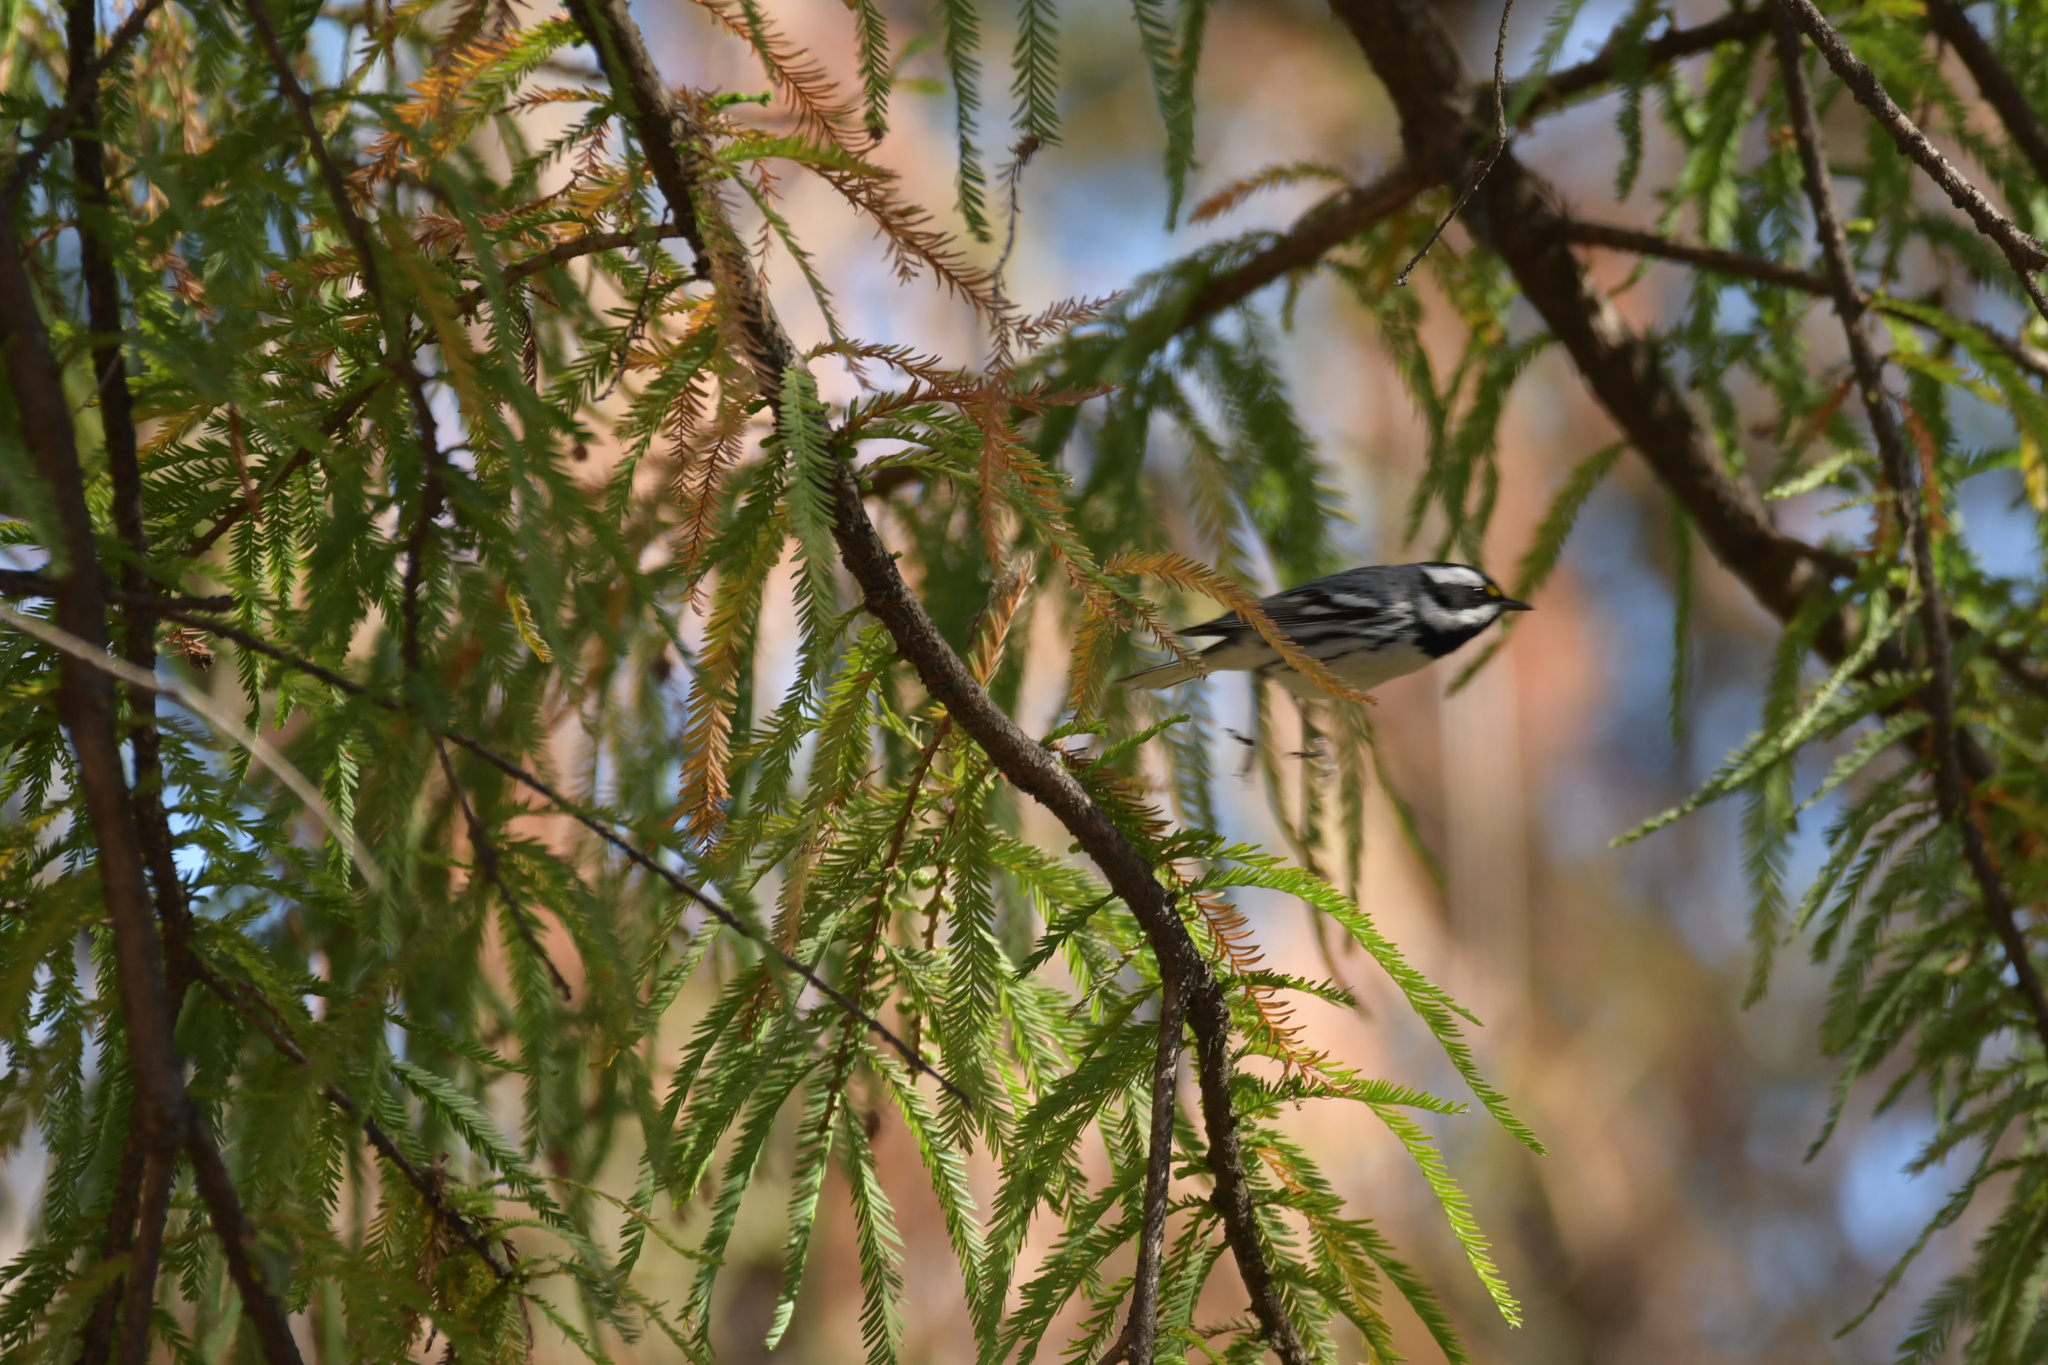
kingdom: Animalia
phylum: Chordata
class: Aves
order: Passeriformes
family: Parulidae
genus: Setophaga
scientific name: Setophaga nigrescens
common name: Black-throated gray warbler
